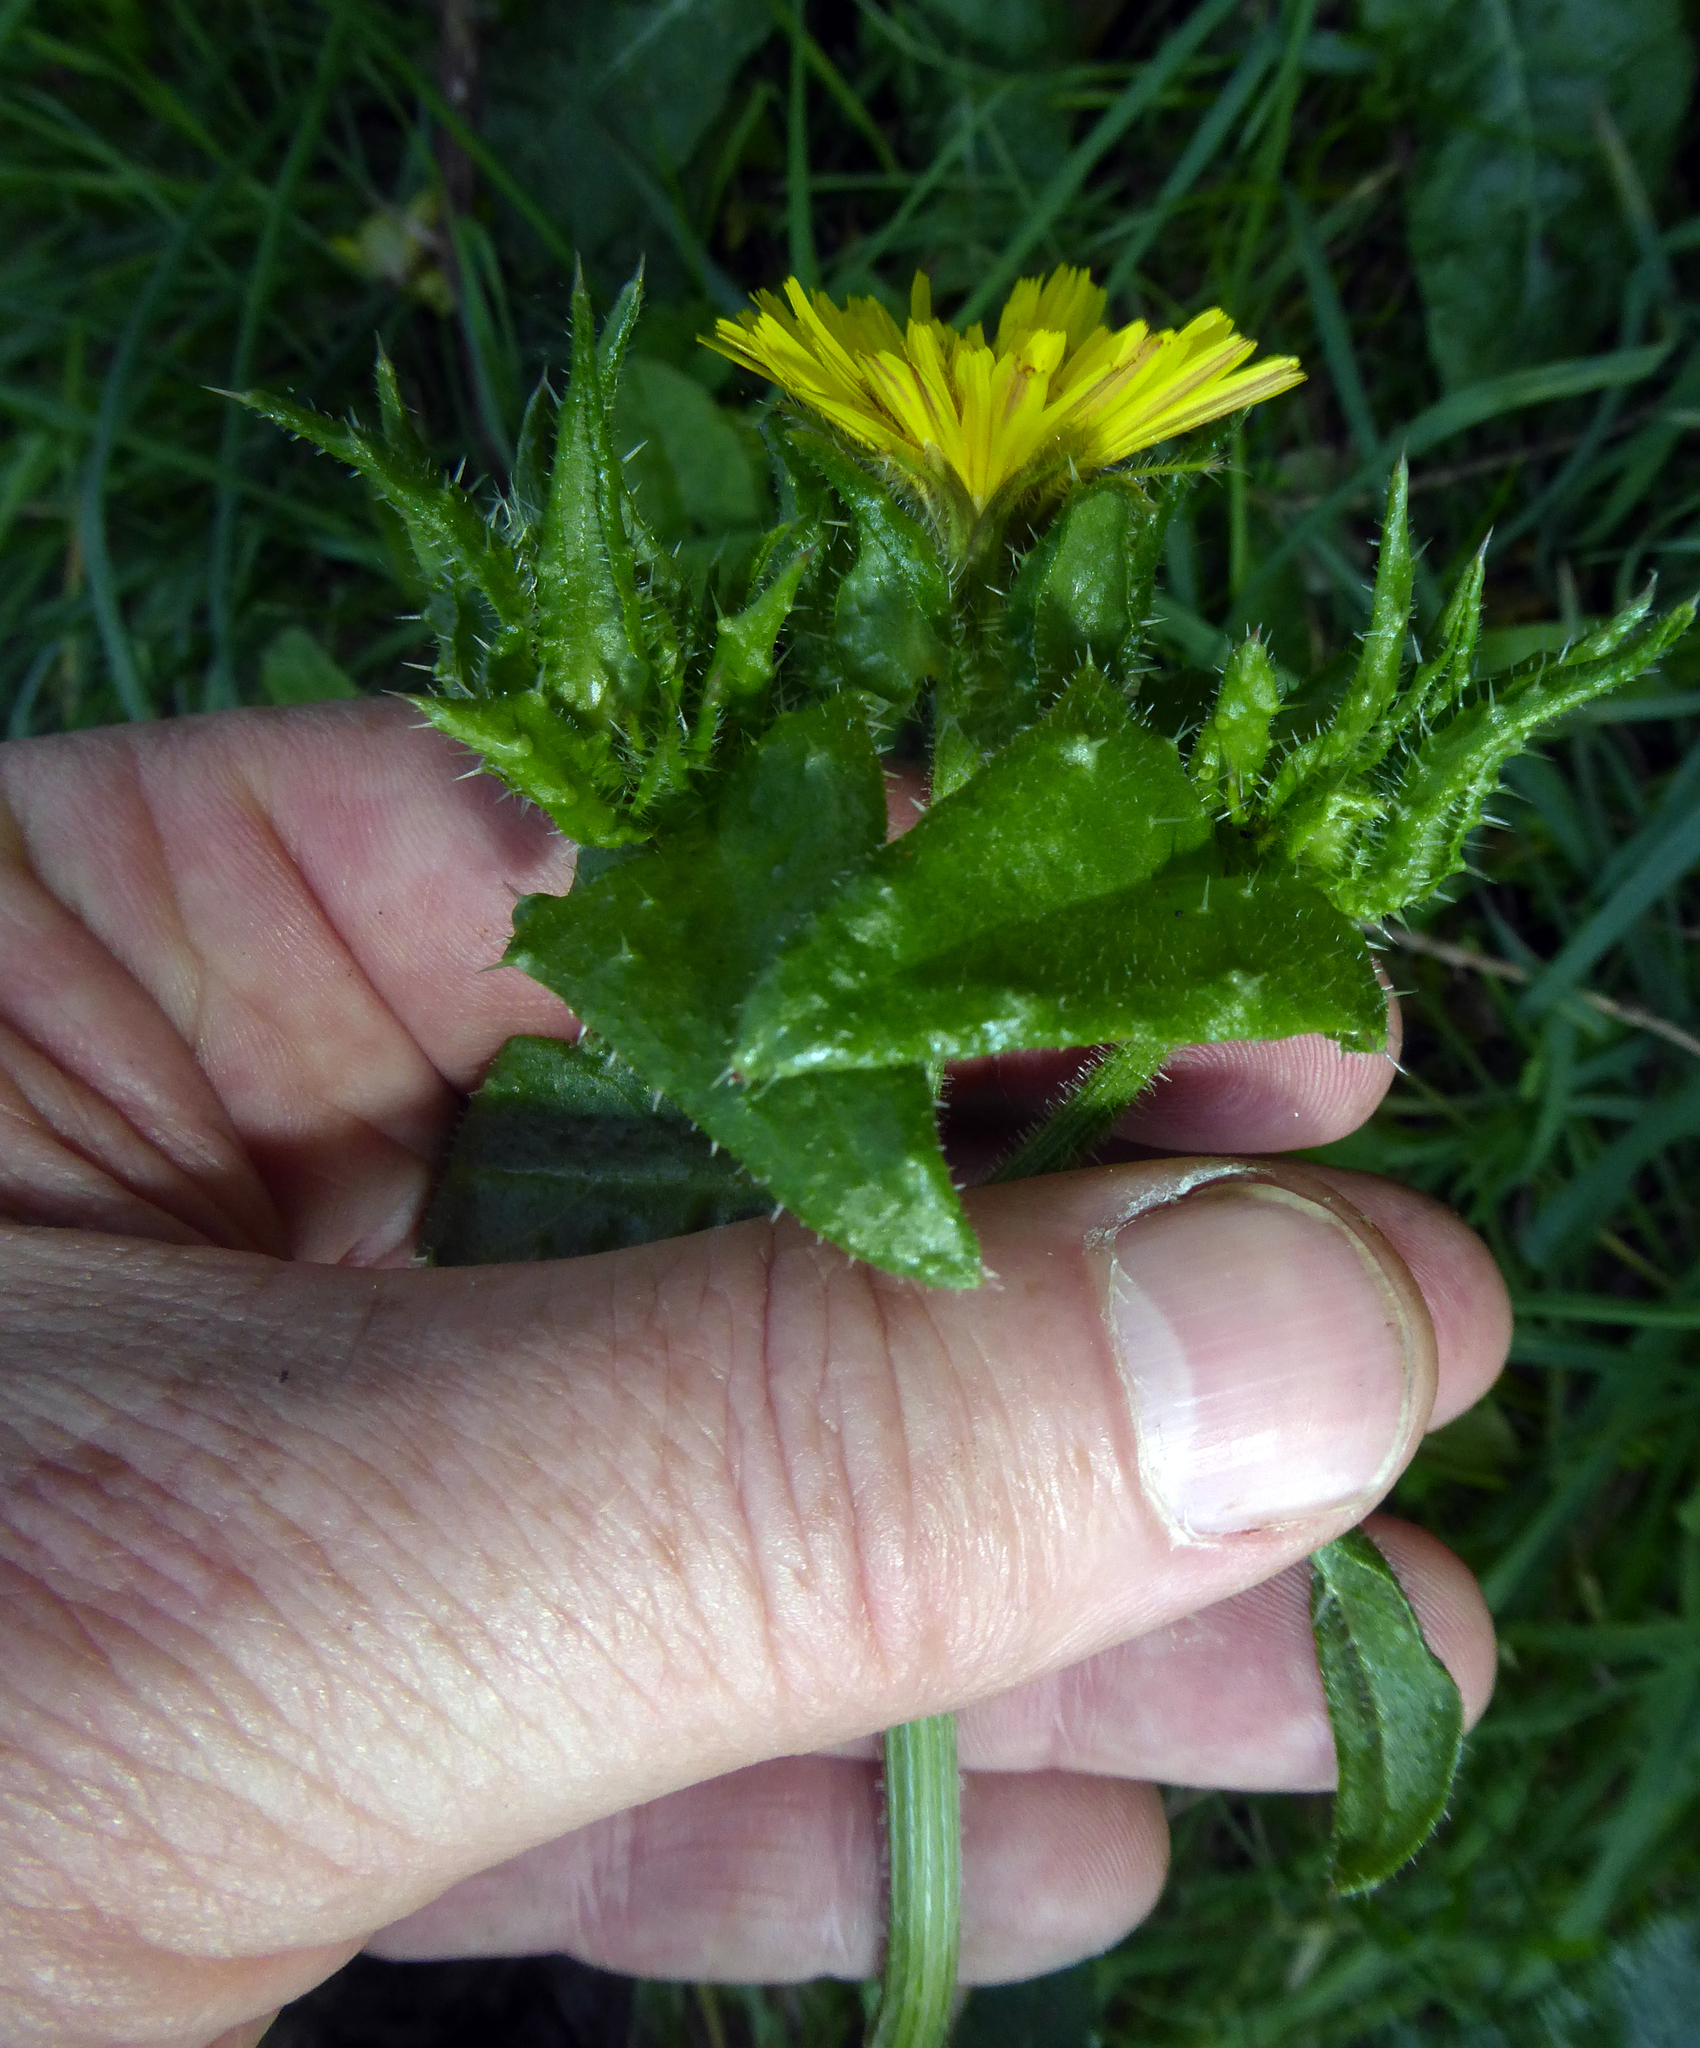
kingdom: Plantae
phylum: Tracheophyta
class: Magnoliopsida
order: Asterales
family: Asteraceae
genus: Helminthotheca
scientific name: Helminthotheca echioides
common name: Ox-tongue
